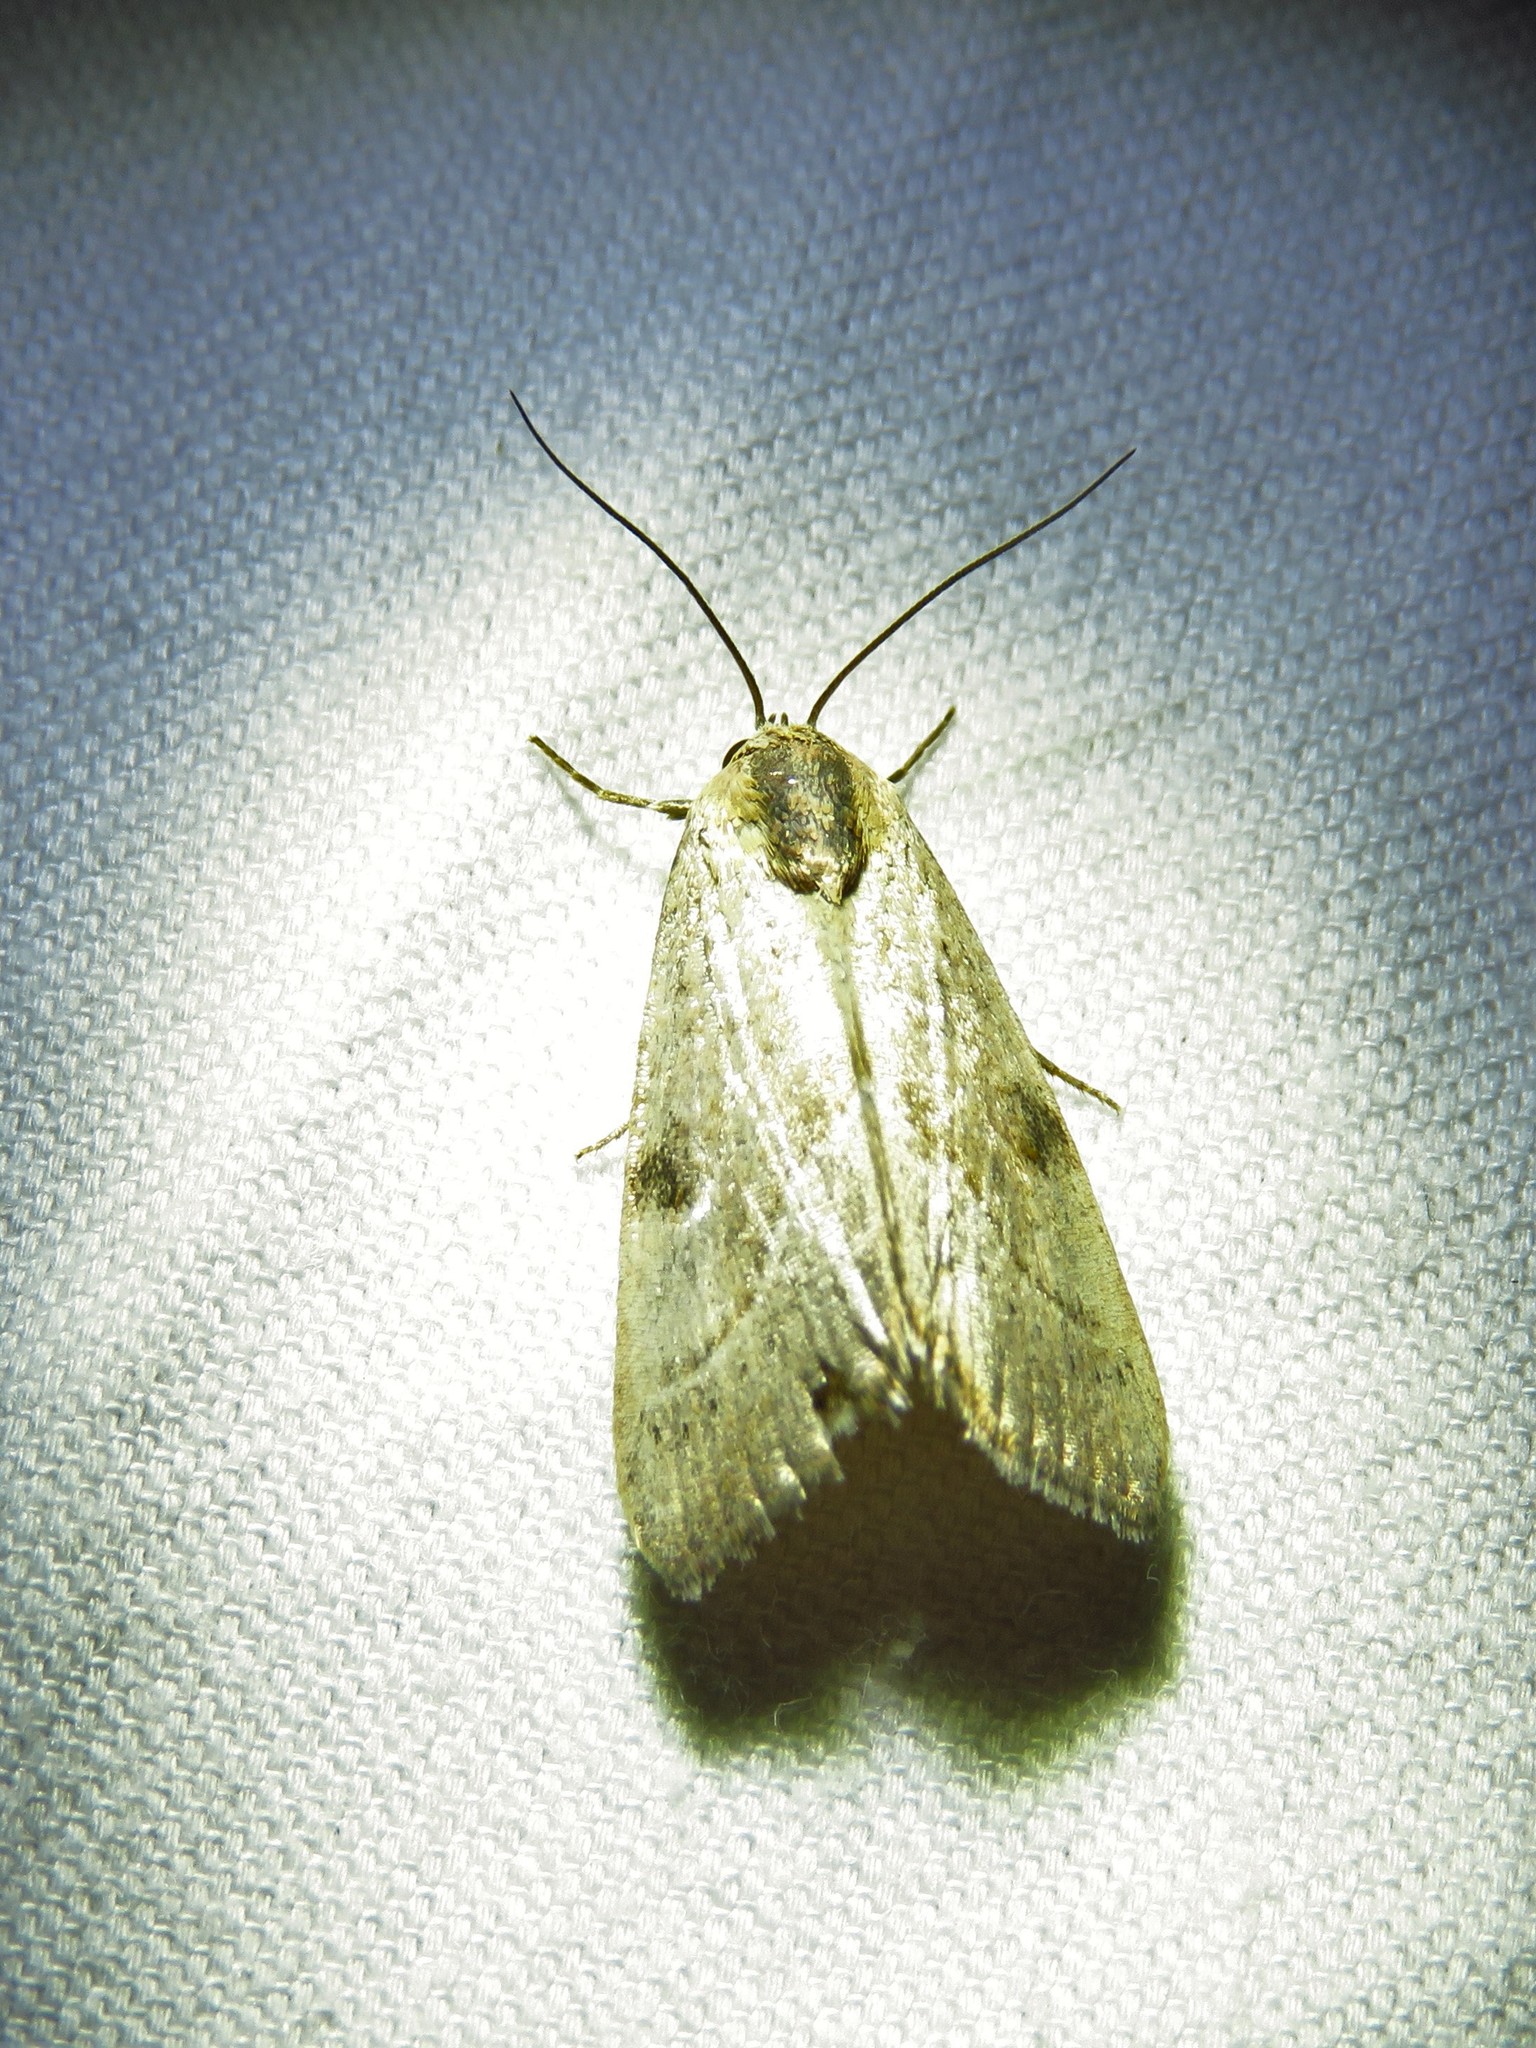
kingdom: Animalia
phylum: Arthropoda
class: Insecta
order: Lepidoptera
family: Noctuidae
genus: Galgula
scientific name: Galgula partita
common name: Wedgeling
